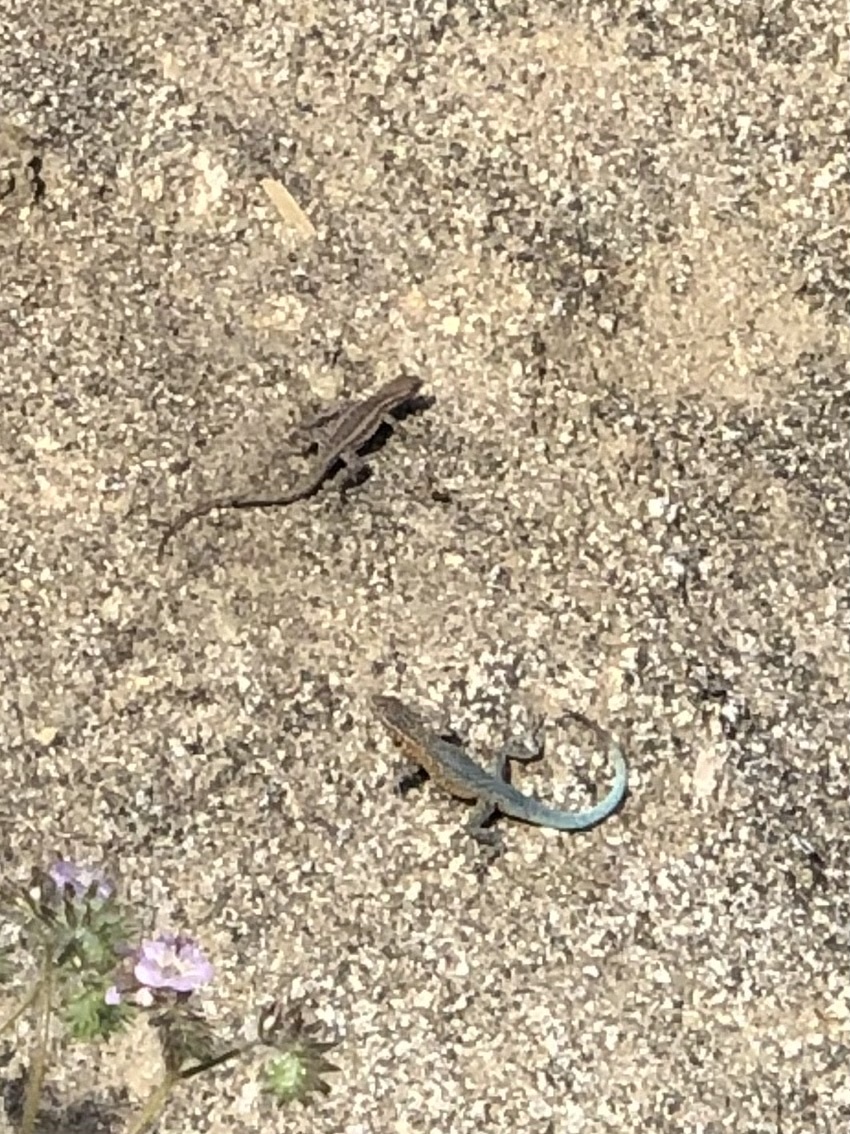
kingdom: Animalia
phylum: Chordata
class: Squamata
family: Phrynosomatidae
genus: Uta
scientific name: Uta stansburiana
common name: Side-blotched lizard
